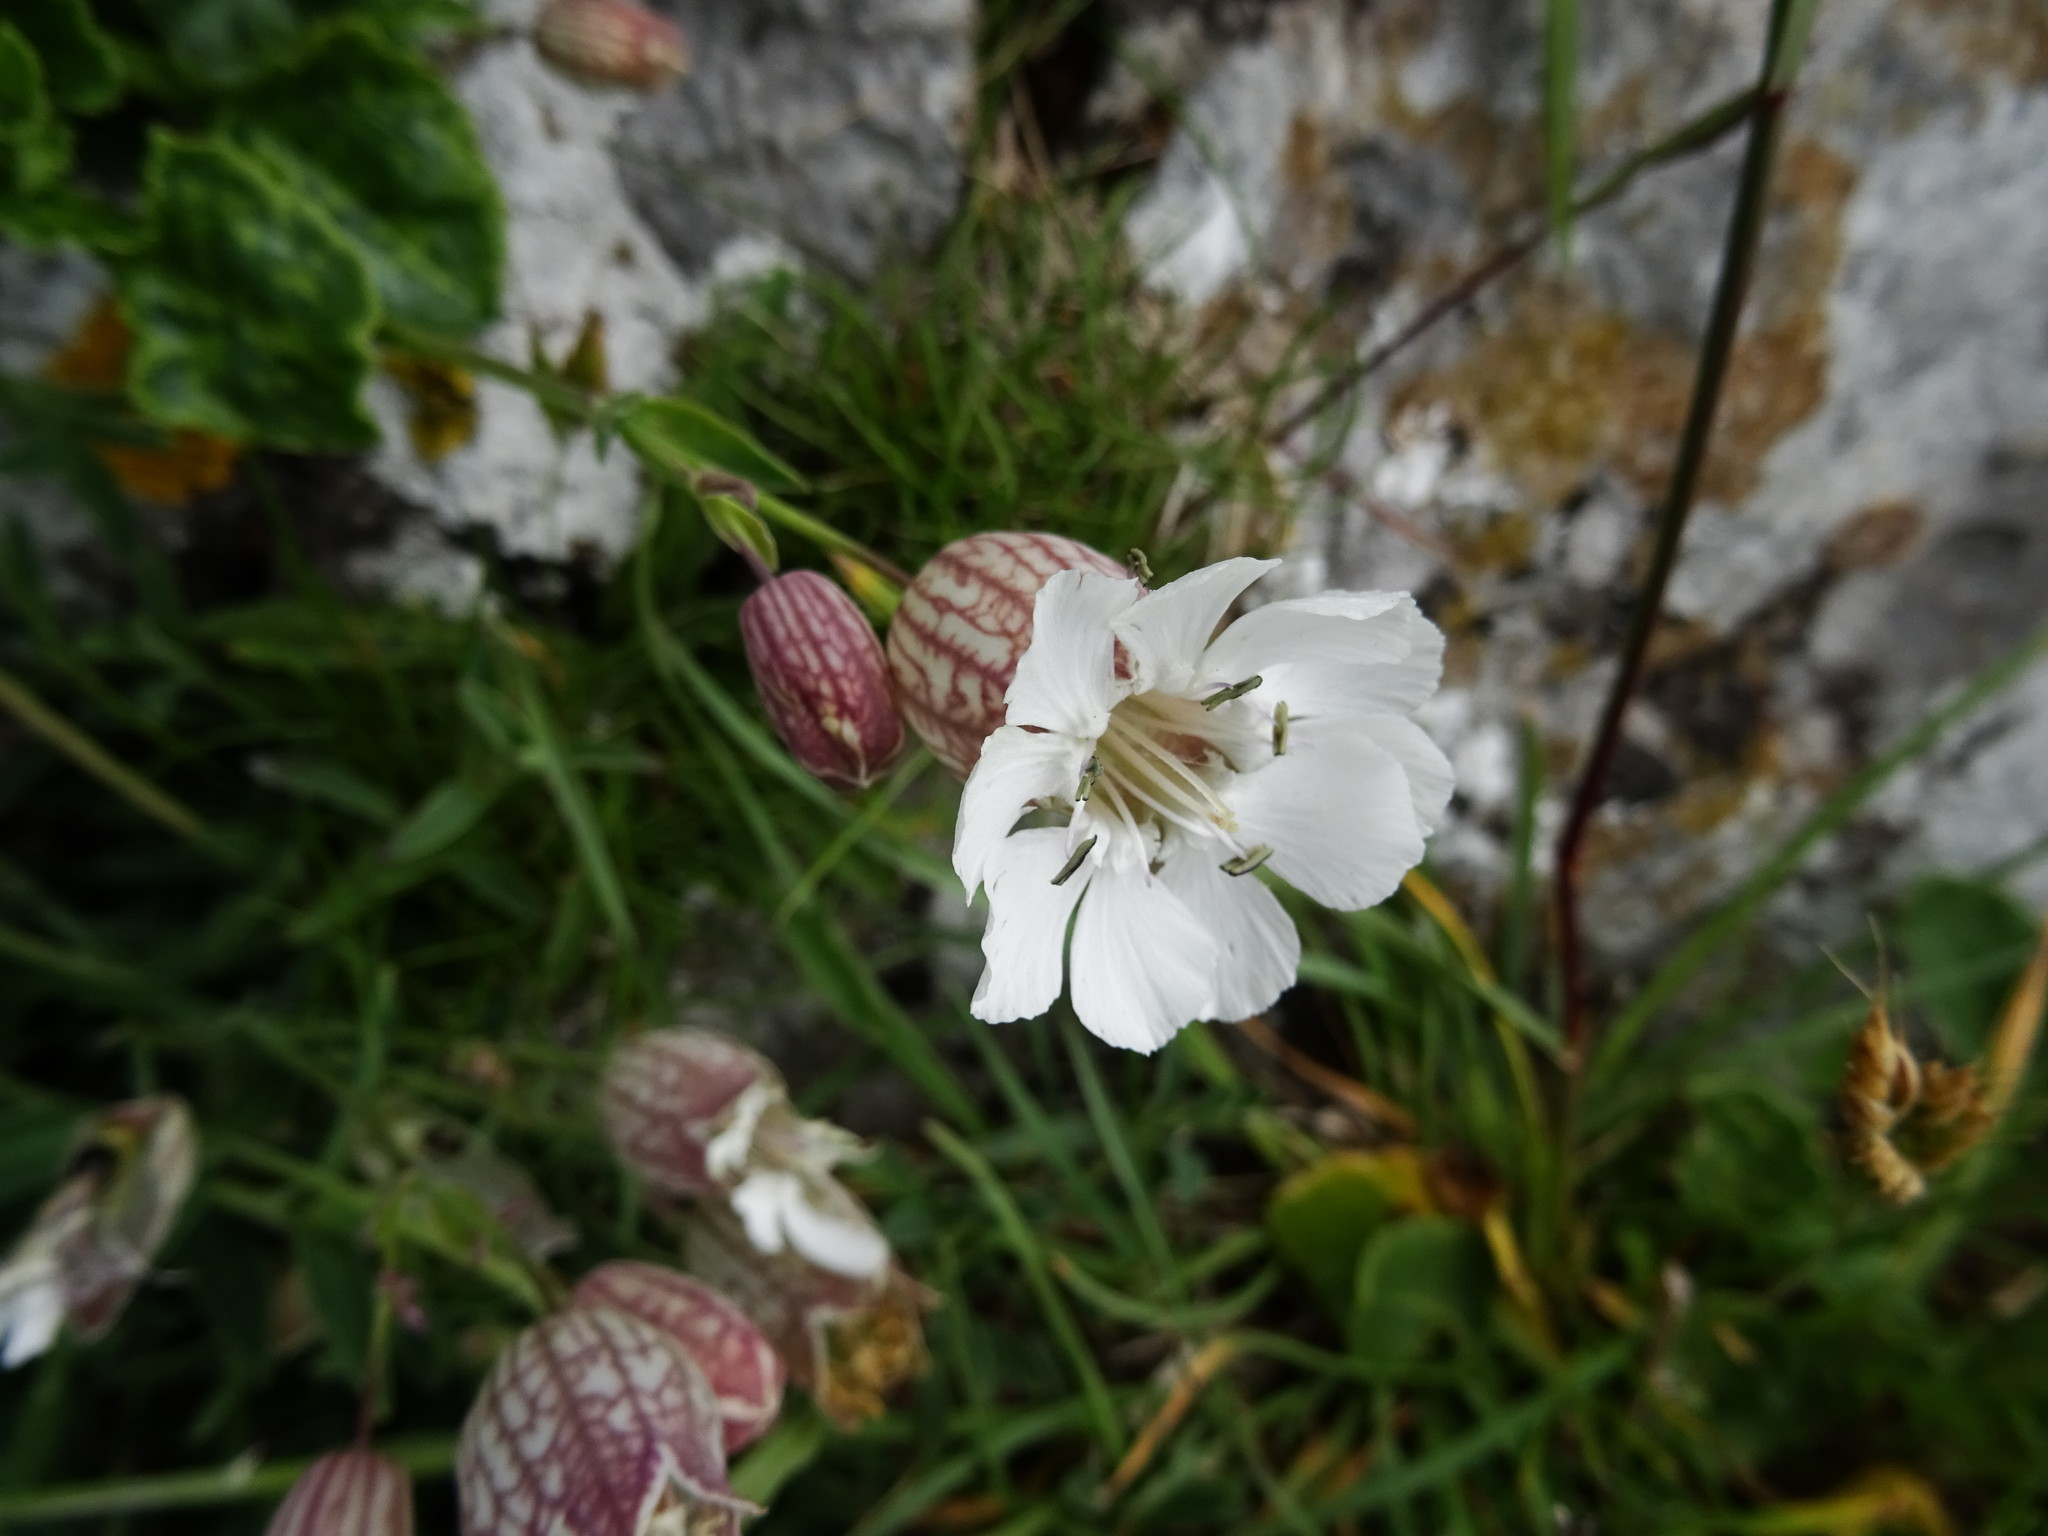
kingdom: Plantae
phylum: Tracheophyta
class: Magnoliopsida
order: Caryophyllales
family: Caryophyllaceae
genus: Silene
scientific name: Silene uniflora
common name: Sea campion
